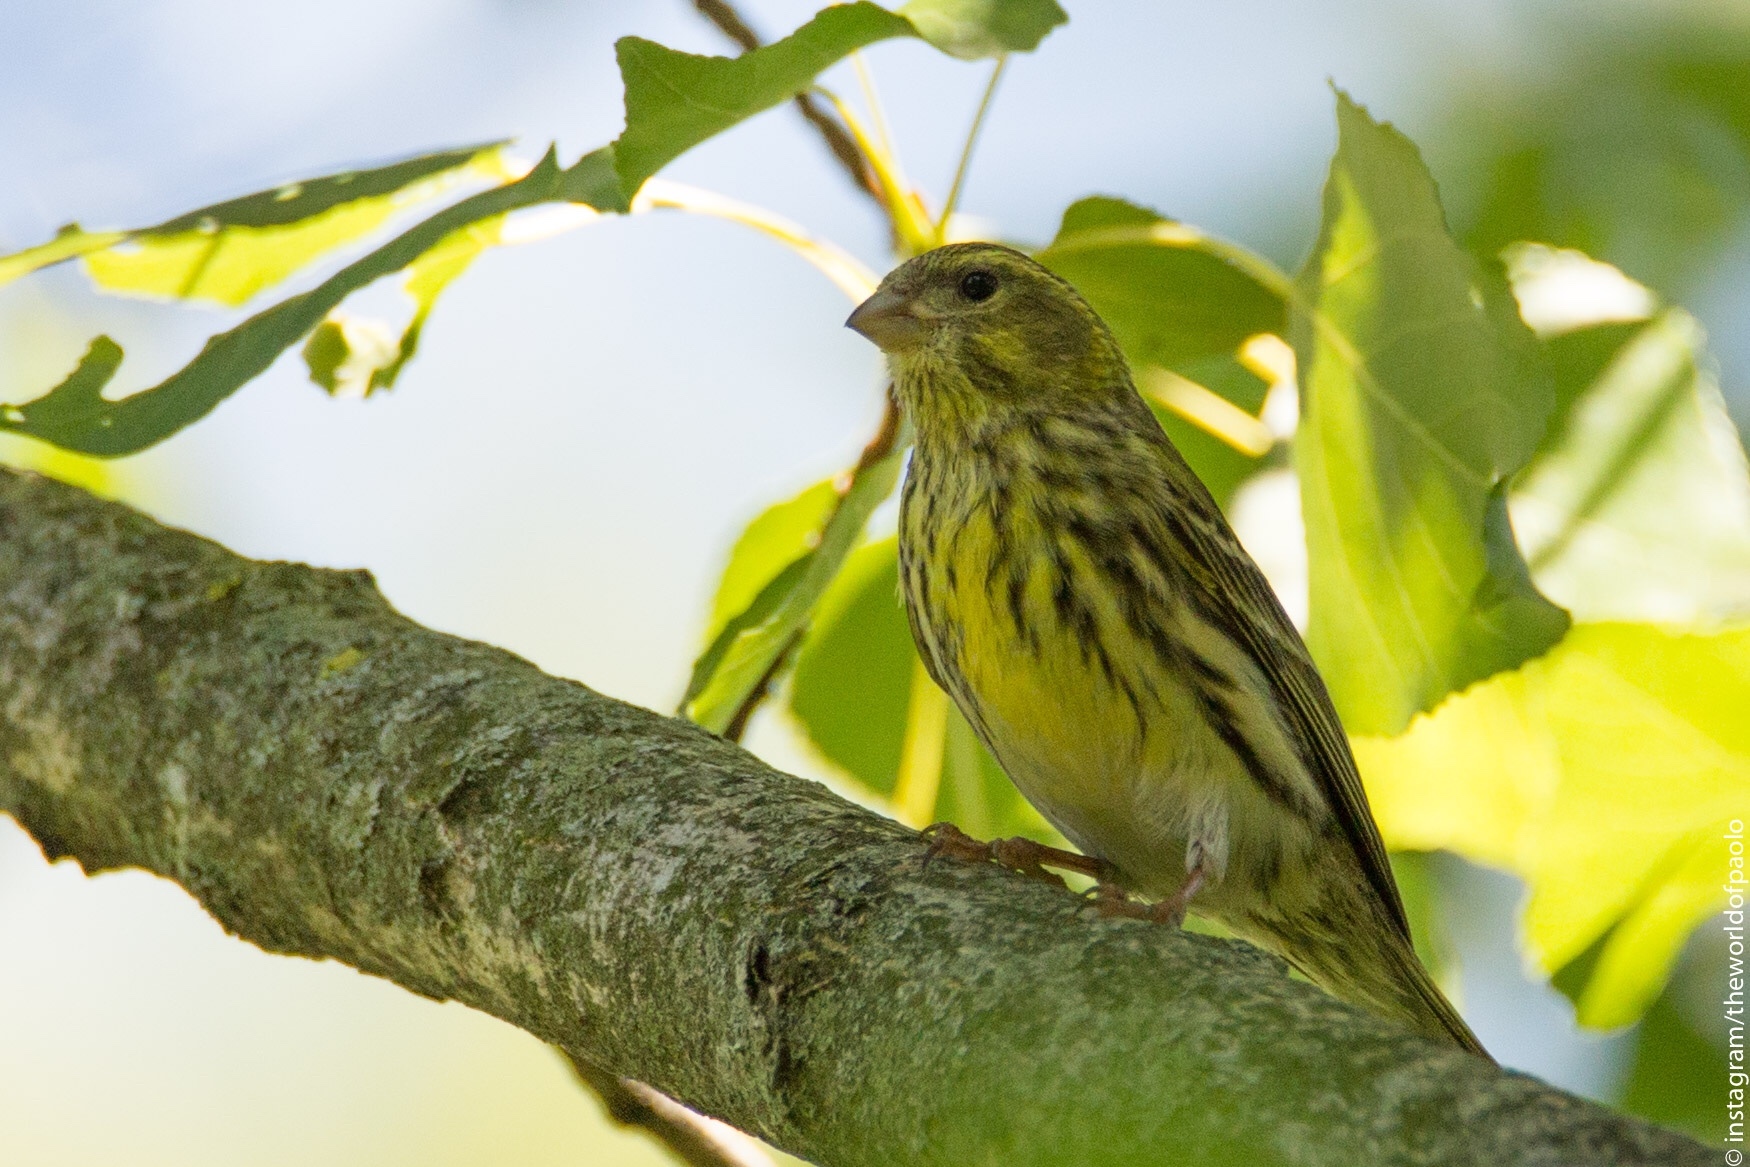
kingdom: Animalia
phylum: Chordata
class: Aves
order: Passeriformes
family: Fringillidae
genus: Serinus
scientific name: Serinus serinus
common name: European serin
